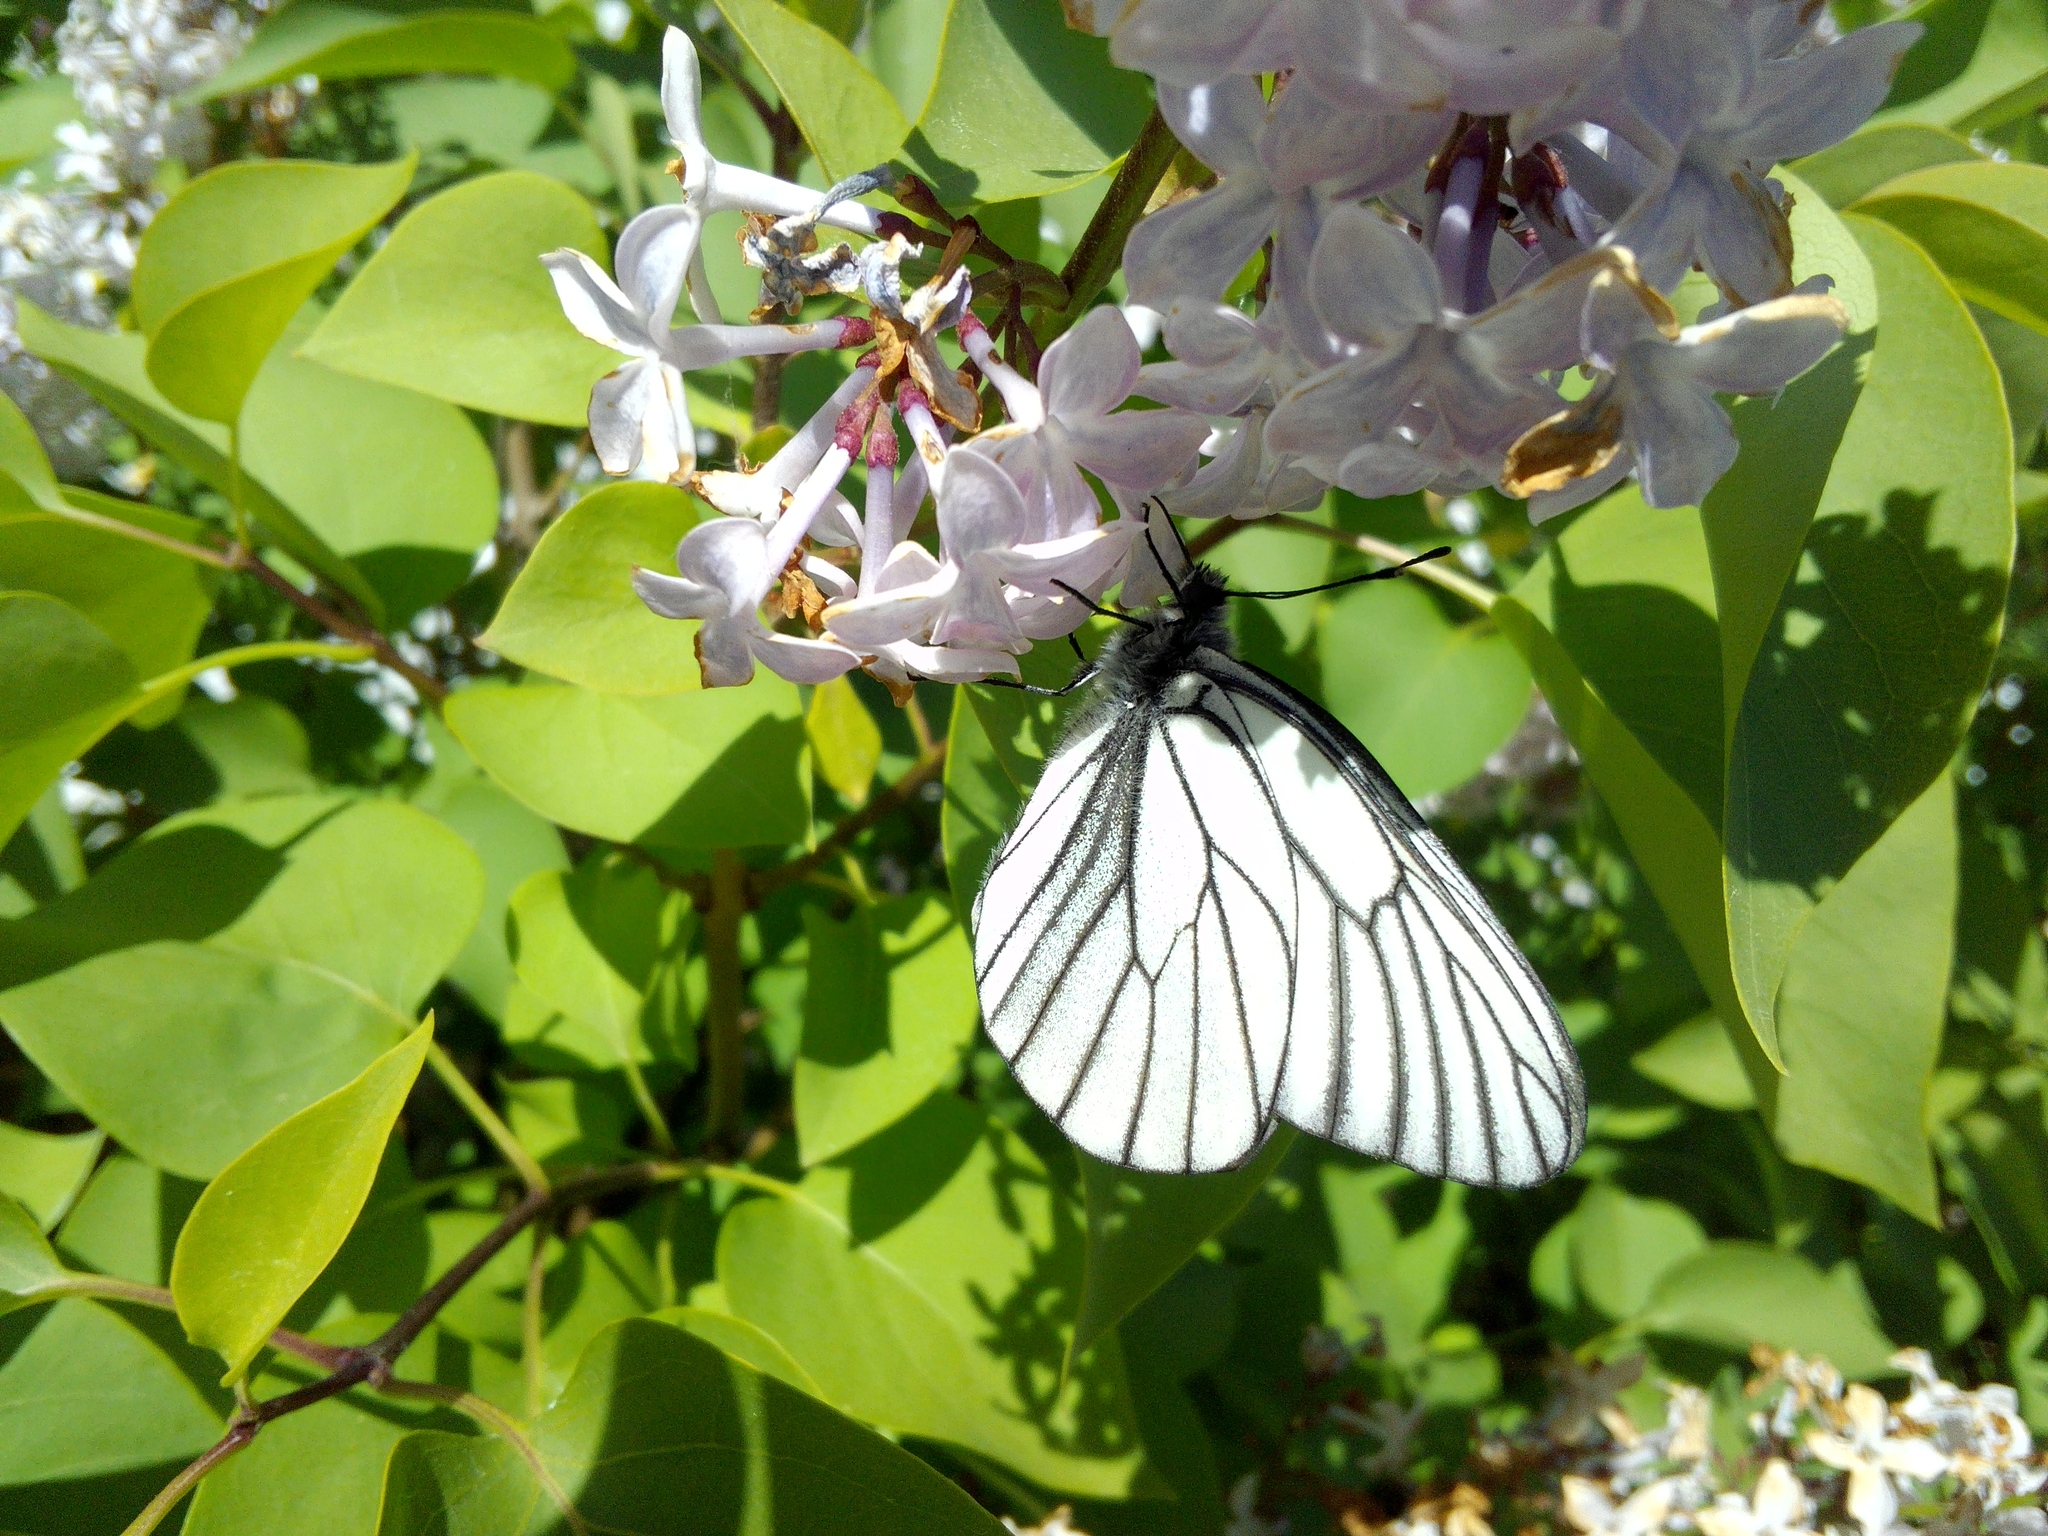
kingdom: Animalia
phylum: Arthropoda
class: Insecta
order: Lepidoptera
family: Pieridae
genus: Aporia
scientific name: Aporia crataegi
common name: Black-veined white
